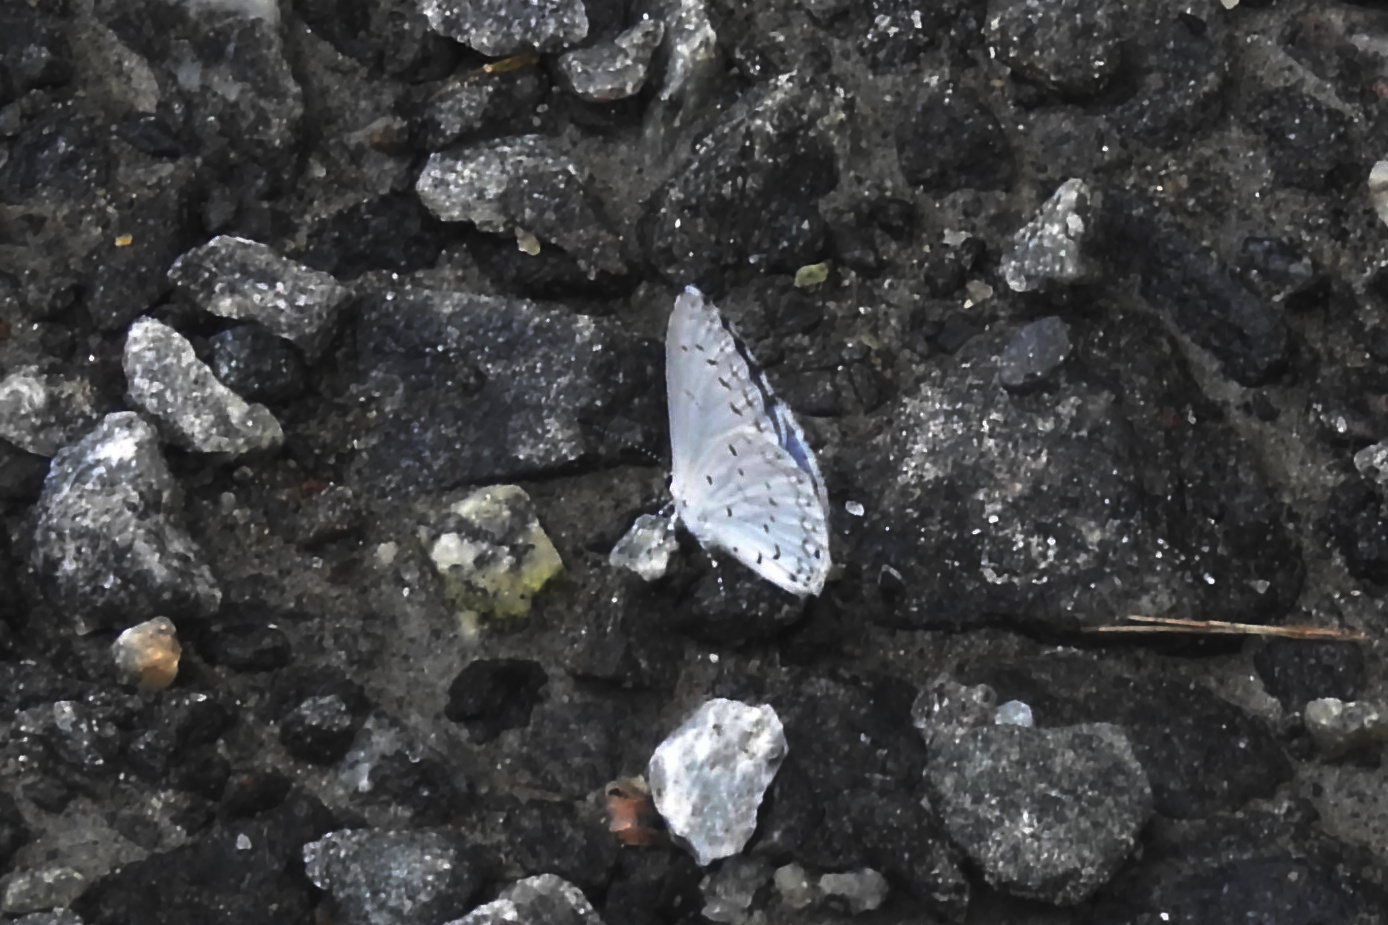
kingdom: Animalia
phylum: Arthropoda
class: Insecta
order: Lepidoptera
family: Lycaenidae
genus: Cyaniris
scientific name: Cyaniris neglecta
